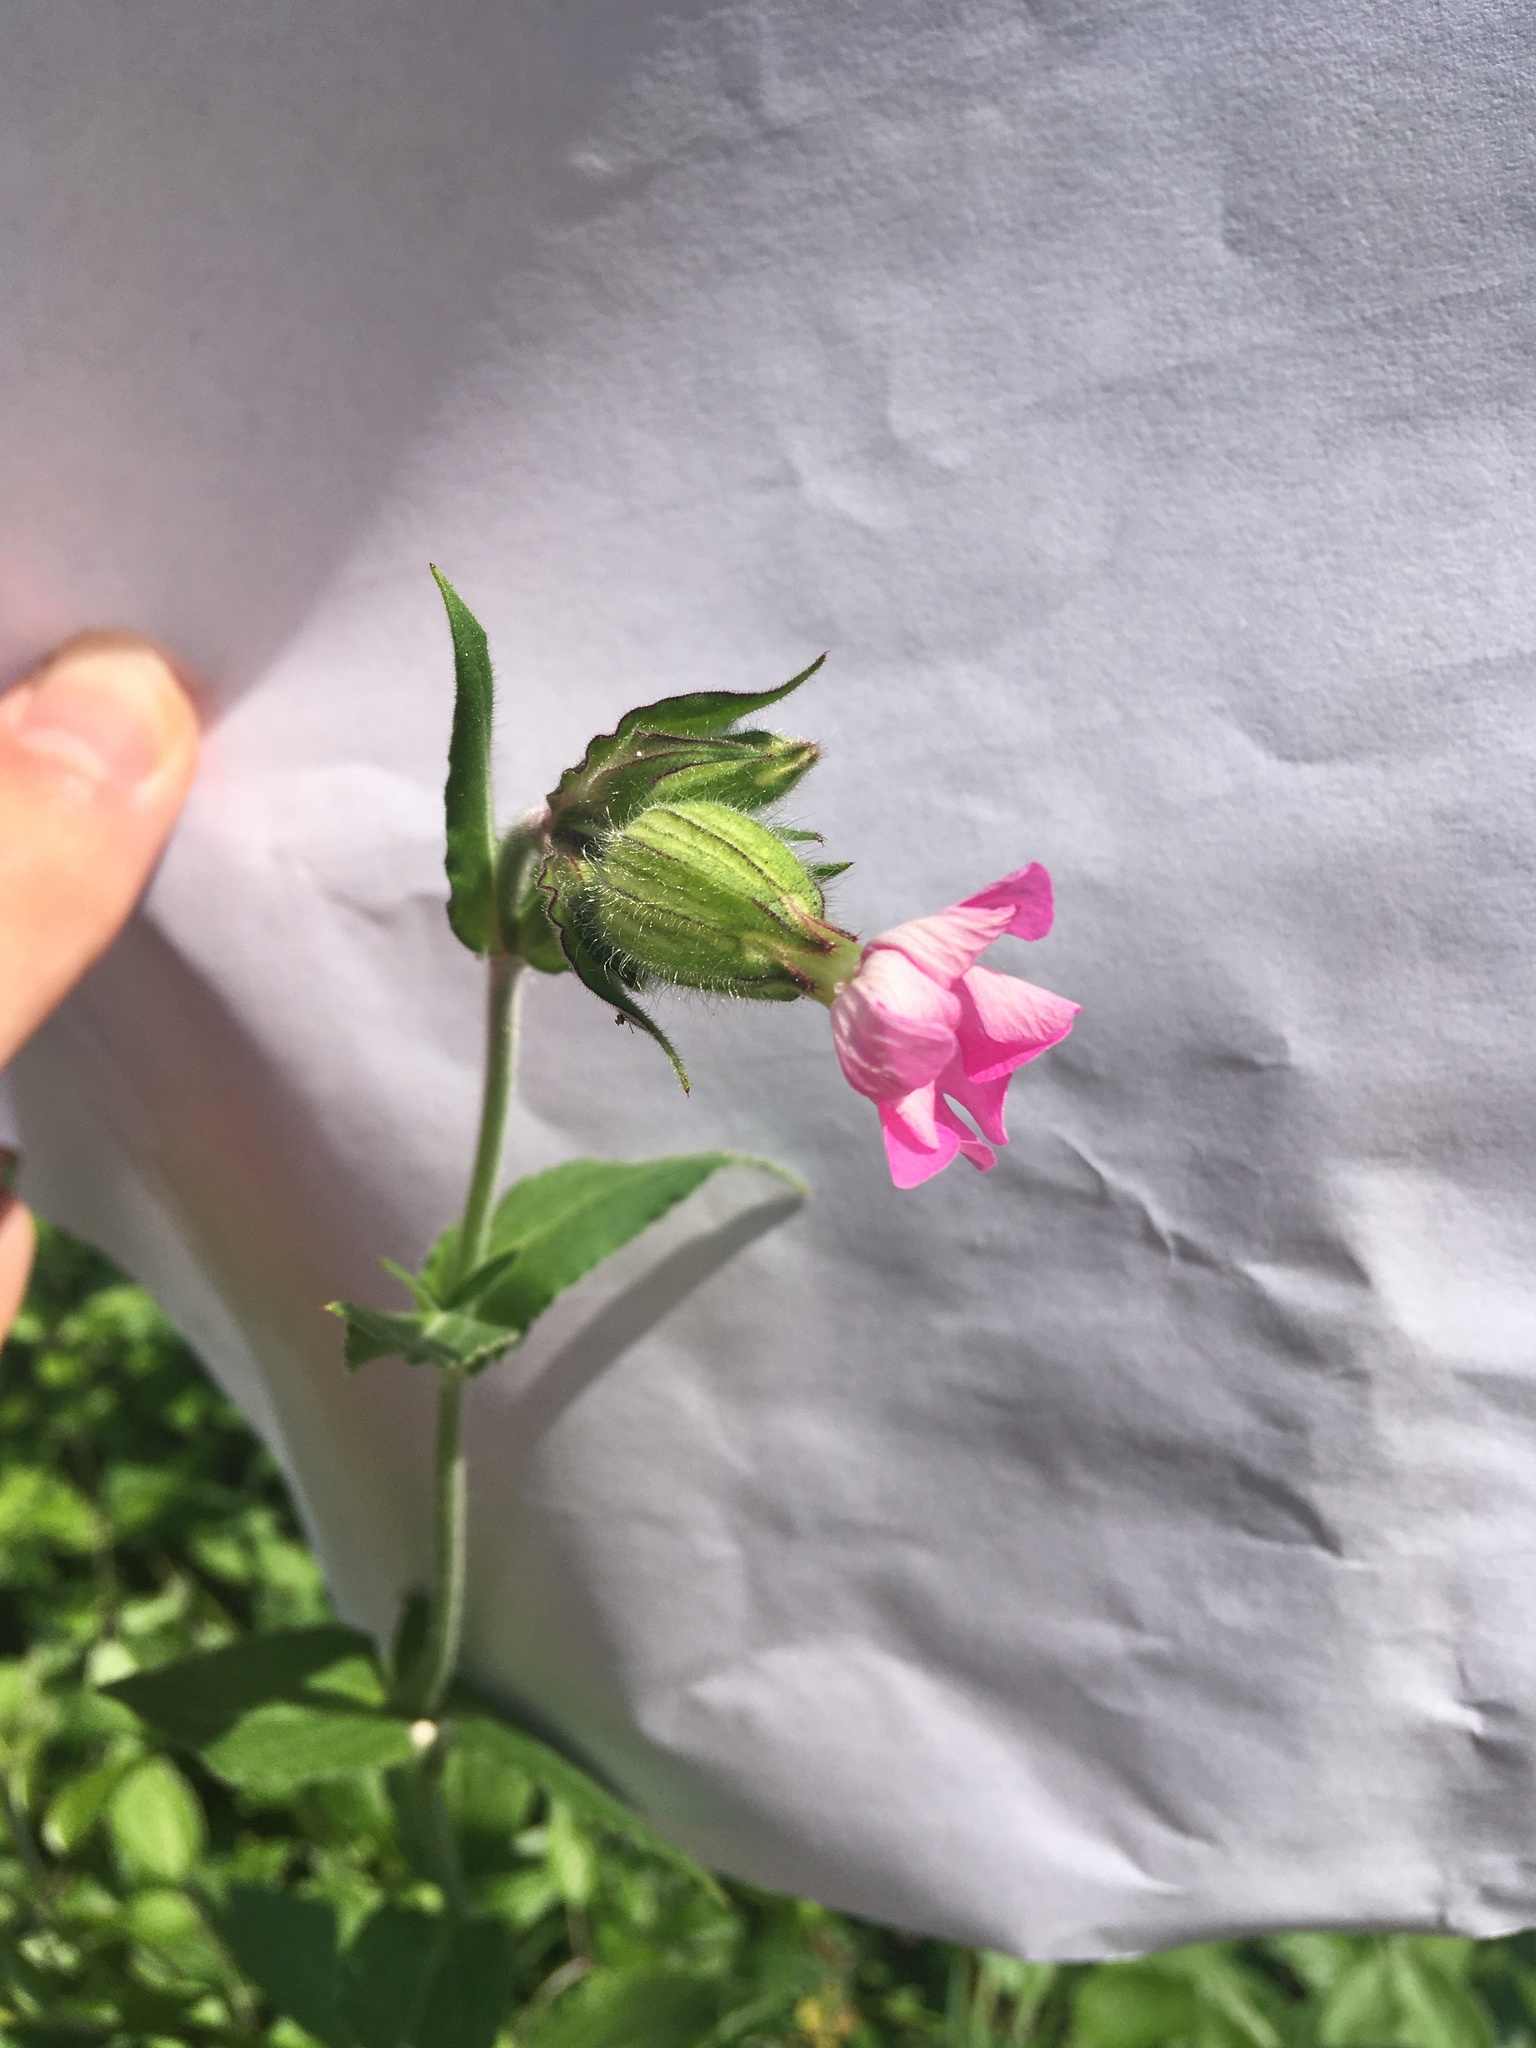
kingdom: Plantae
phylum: Tracheophyta
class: Magnoliopsida
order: Caryophyllales
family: Caryophyllaceae
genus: Silene
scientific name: Silene dioica
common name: Red campion
